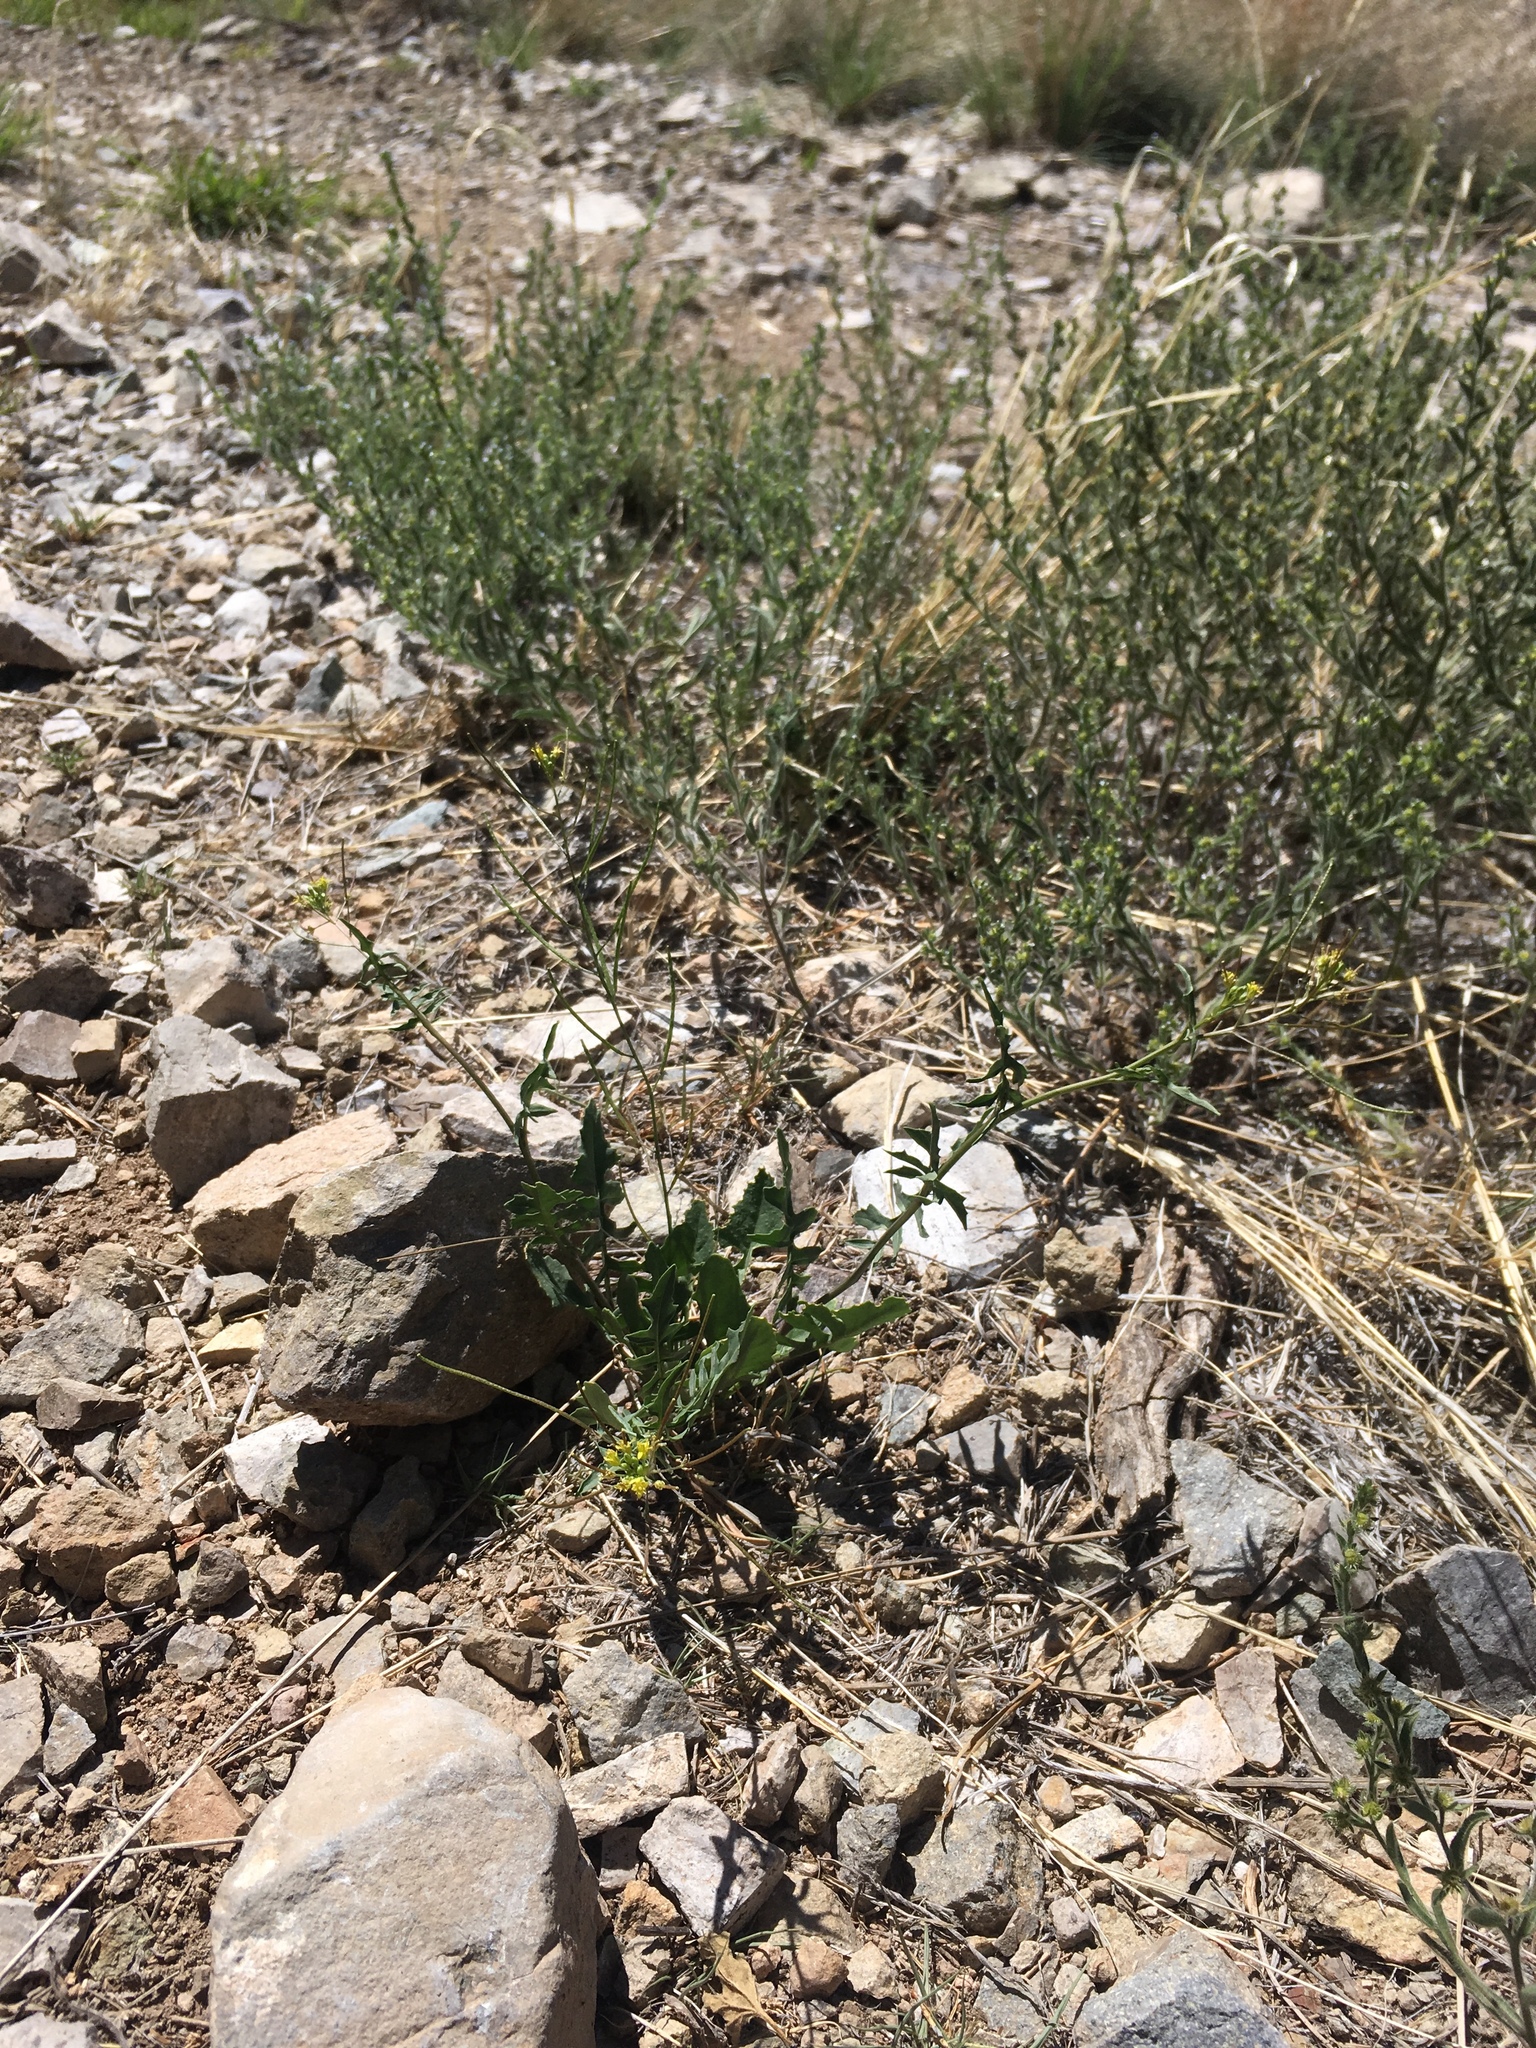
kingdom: Plantae
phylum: Tracheophyta
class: Magnoliopsida
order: Brassicales
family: Brassicaceae
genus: Sisymbrium
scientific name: Sisymbrium irio
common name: London rocket
